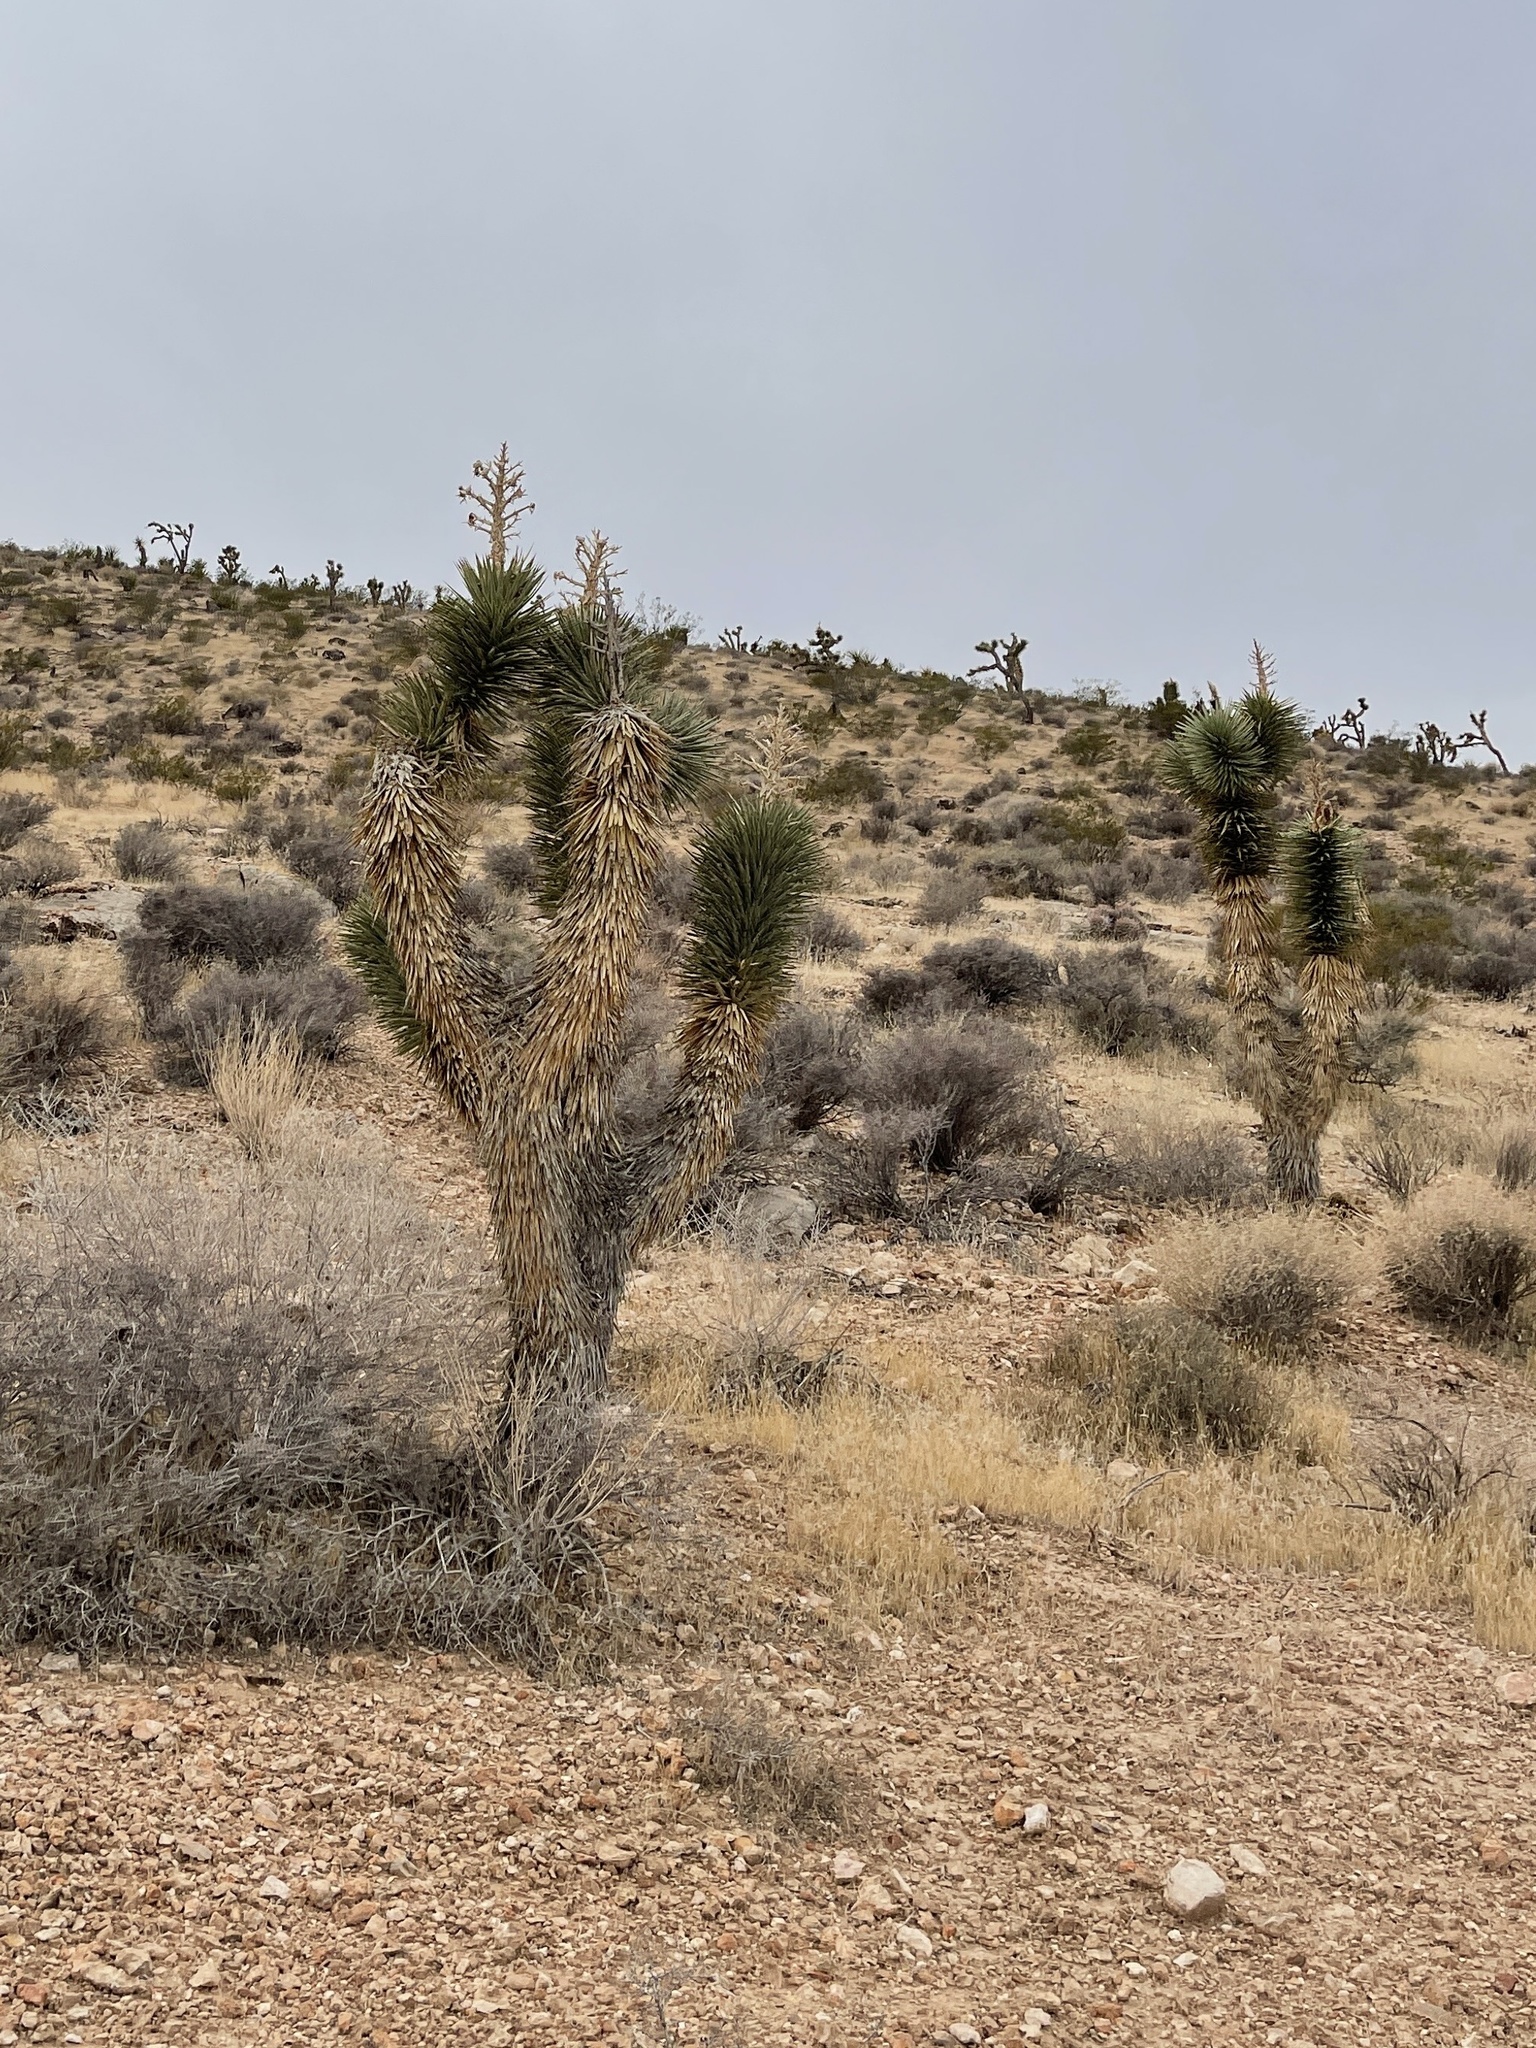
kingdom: Plantae
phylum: Tracheophyta
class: Liliopsida
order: Asparagales
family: Asparagaceae
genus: Yucca
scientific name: Yucca brevifolia
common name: Joshua tree
